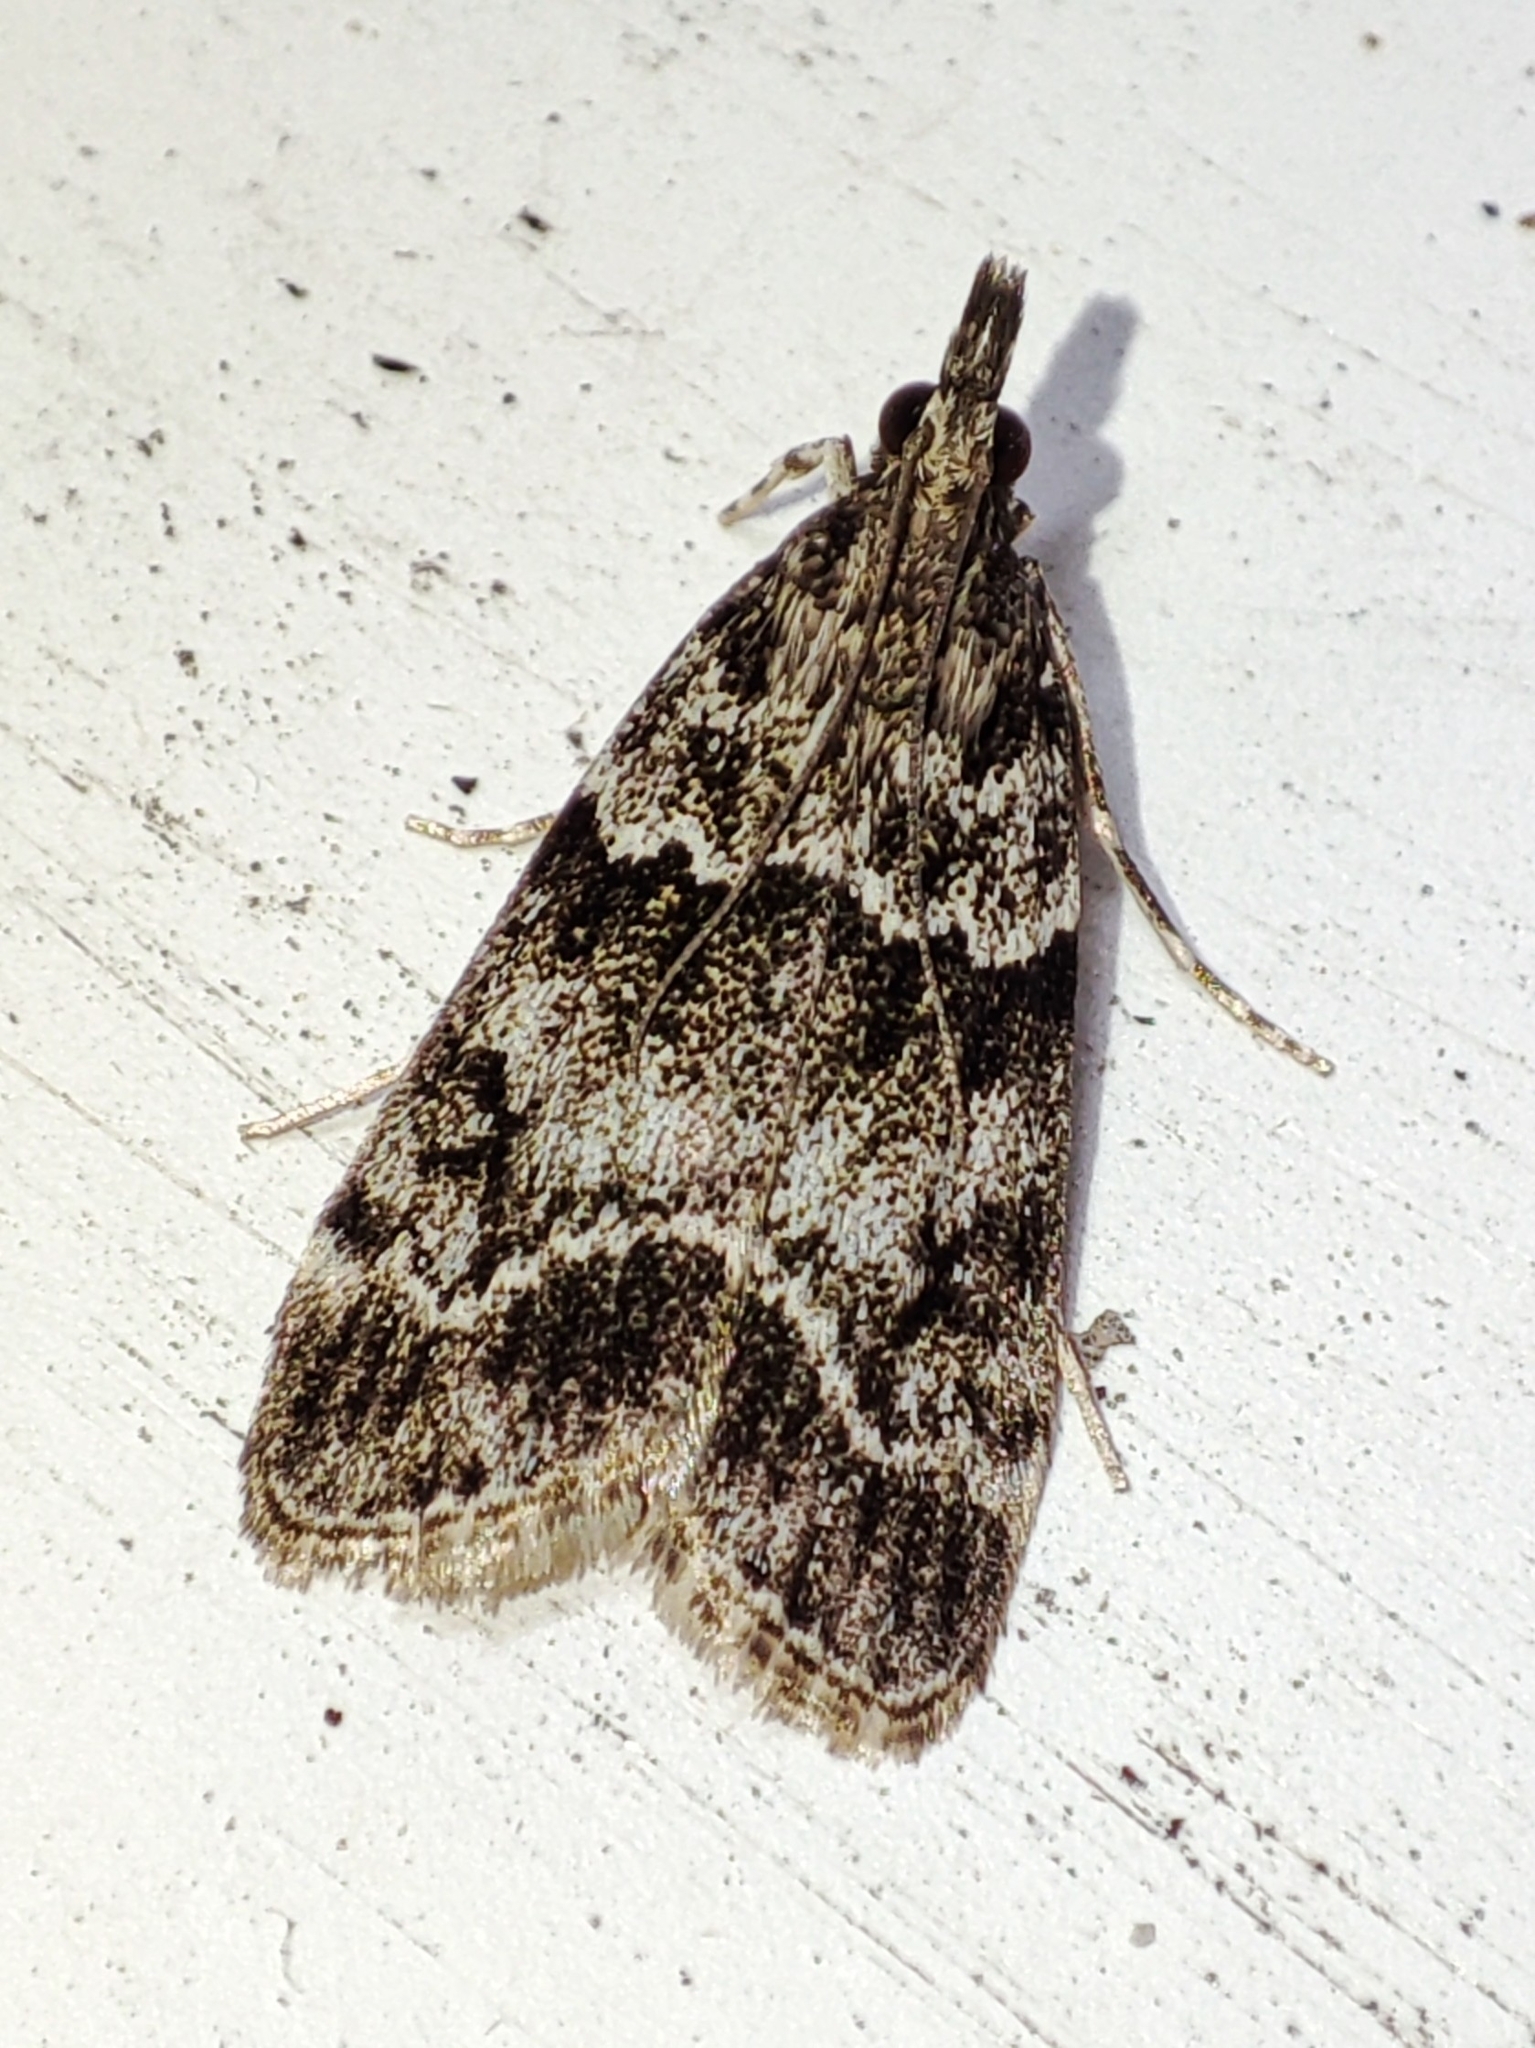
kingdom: Animalia
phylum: Arthropoda
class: Insecta
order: Lepidoptera
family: Crambidae
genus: Eudonia
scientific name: Eudonia mercurella
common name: Small grey
